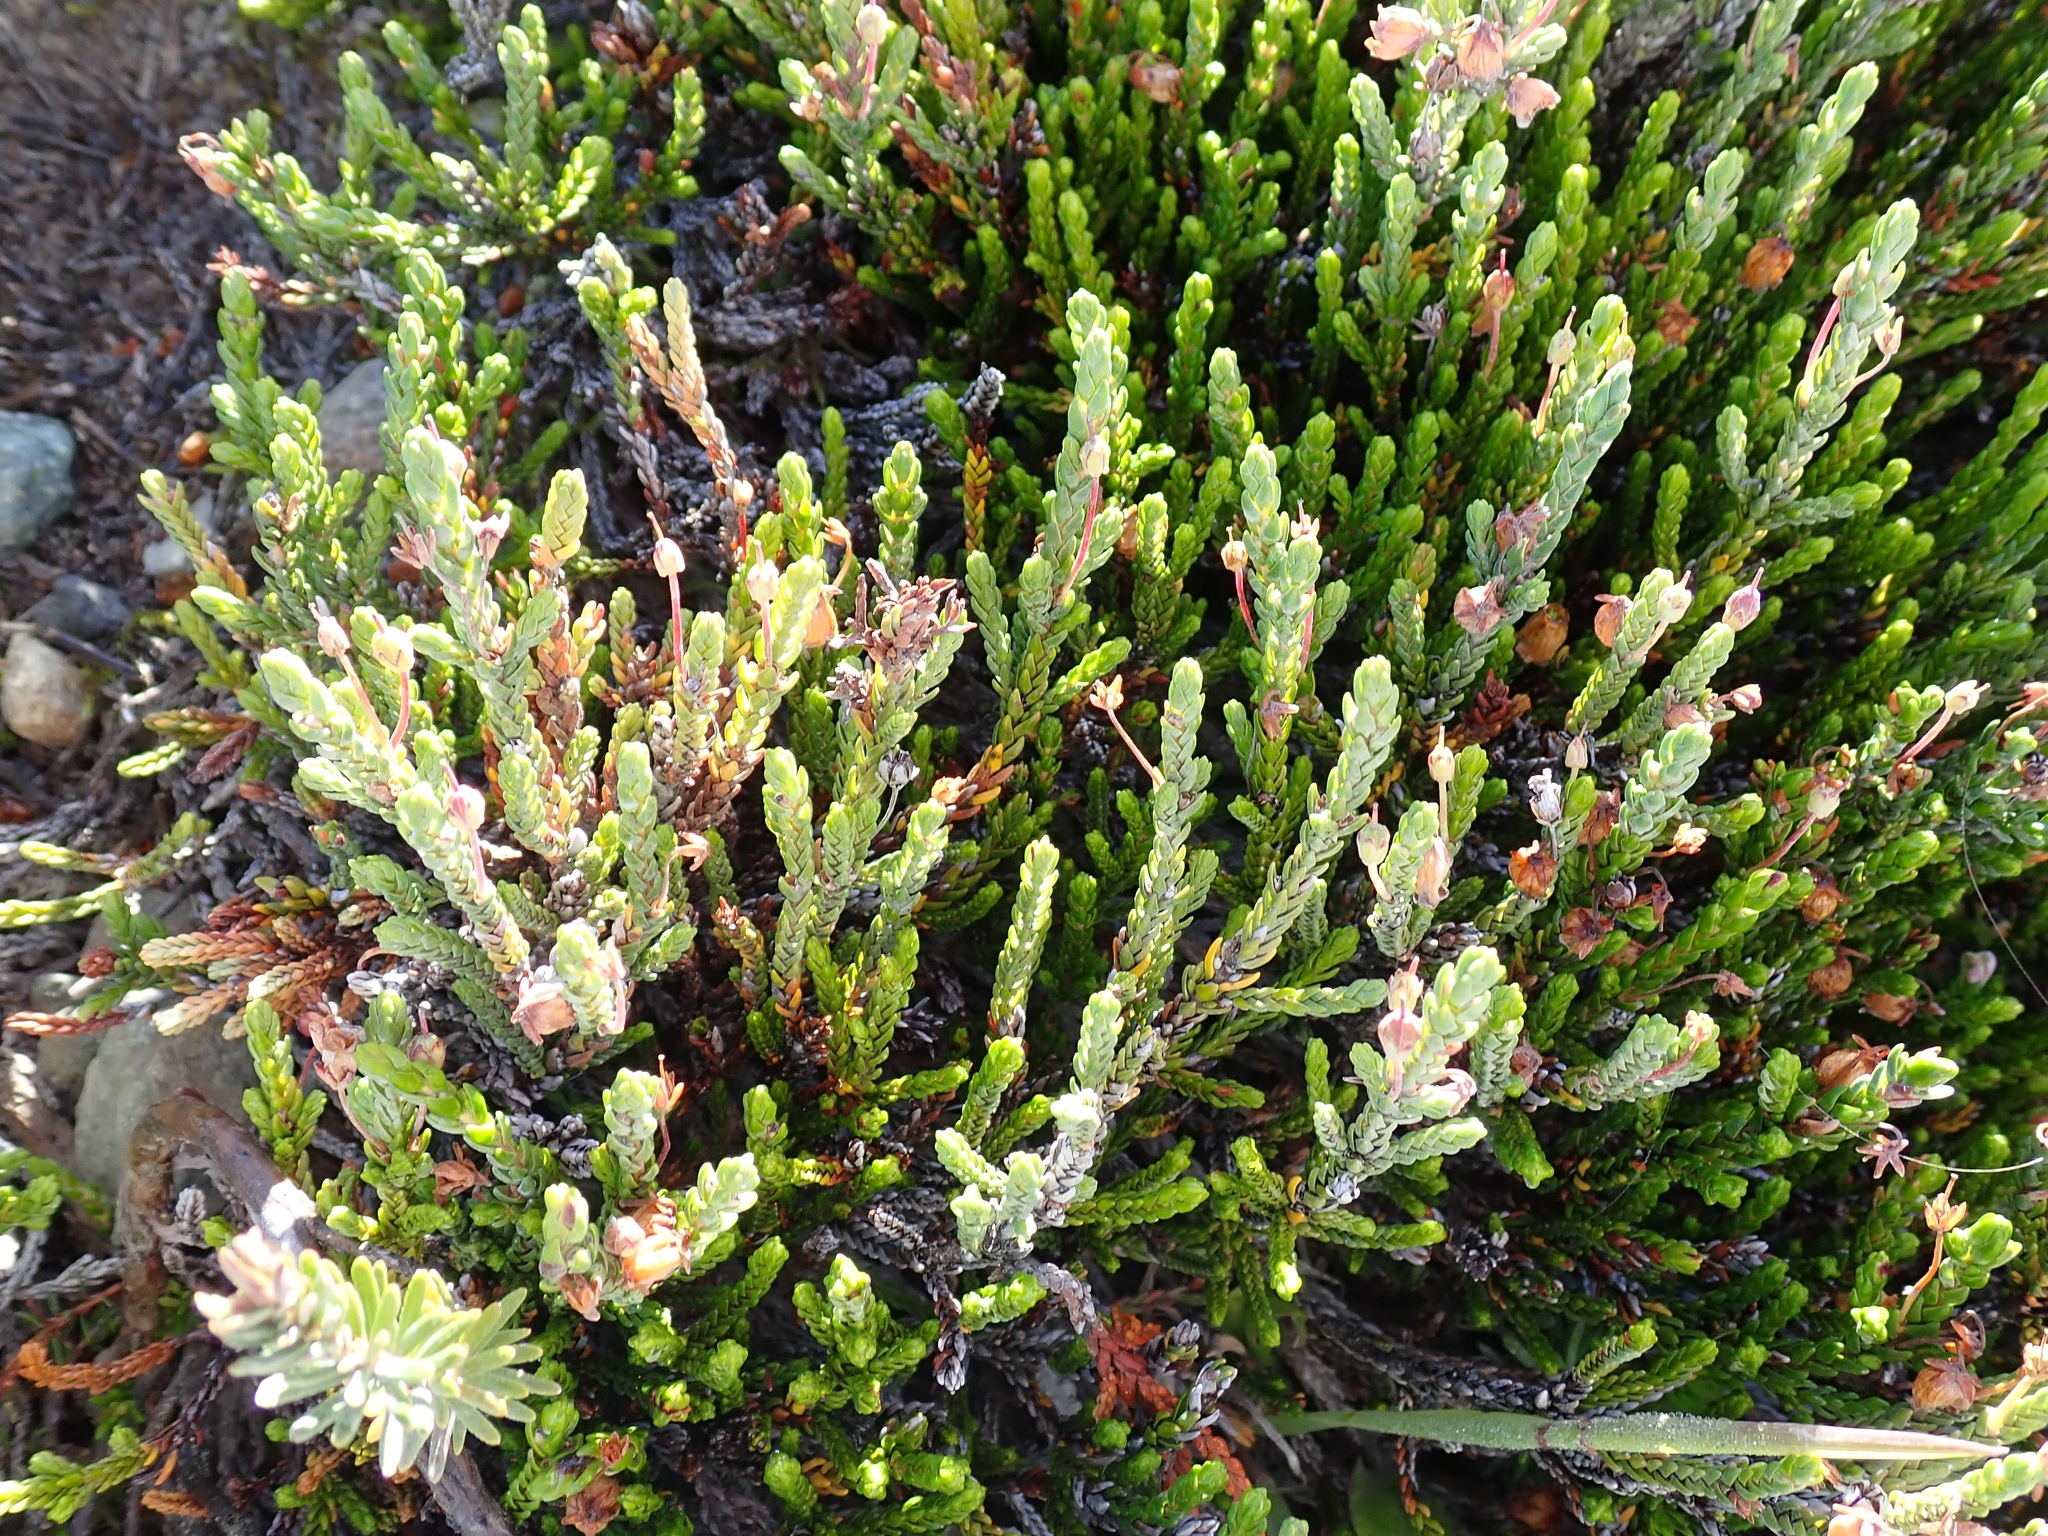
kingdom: Plantae
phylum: Tracheophyta
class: Magnoliopsida
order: Ericales
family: Ericaceae
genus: Cassiope
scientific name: Cassiope mertensiana
